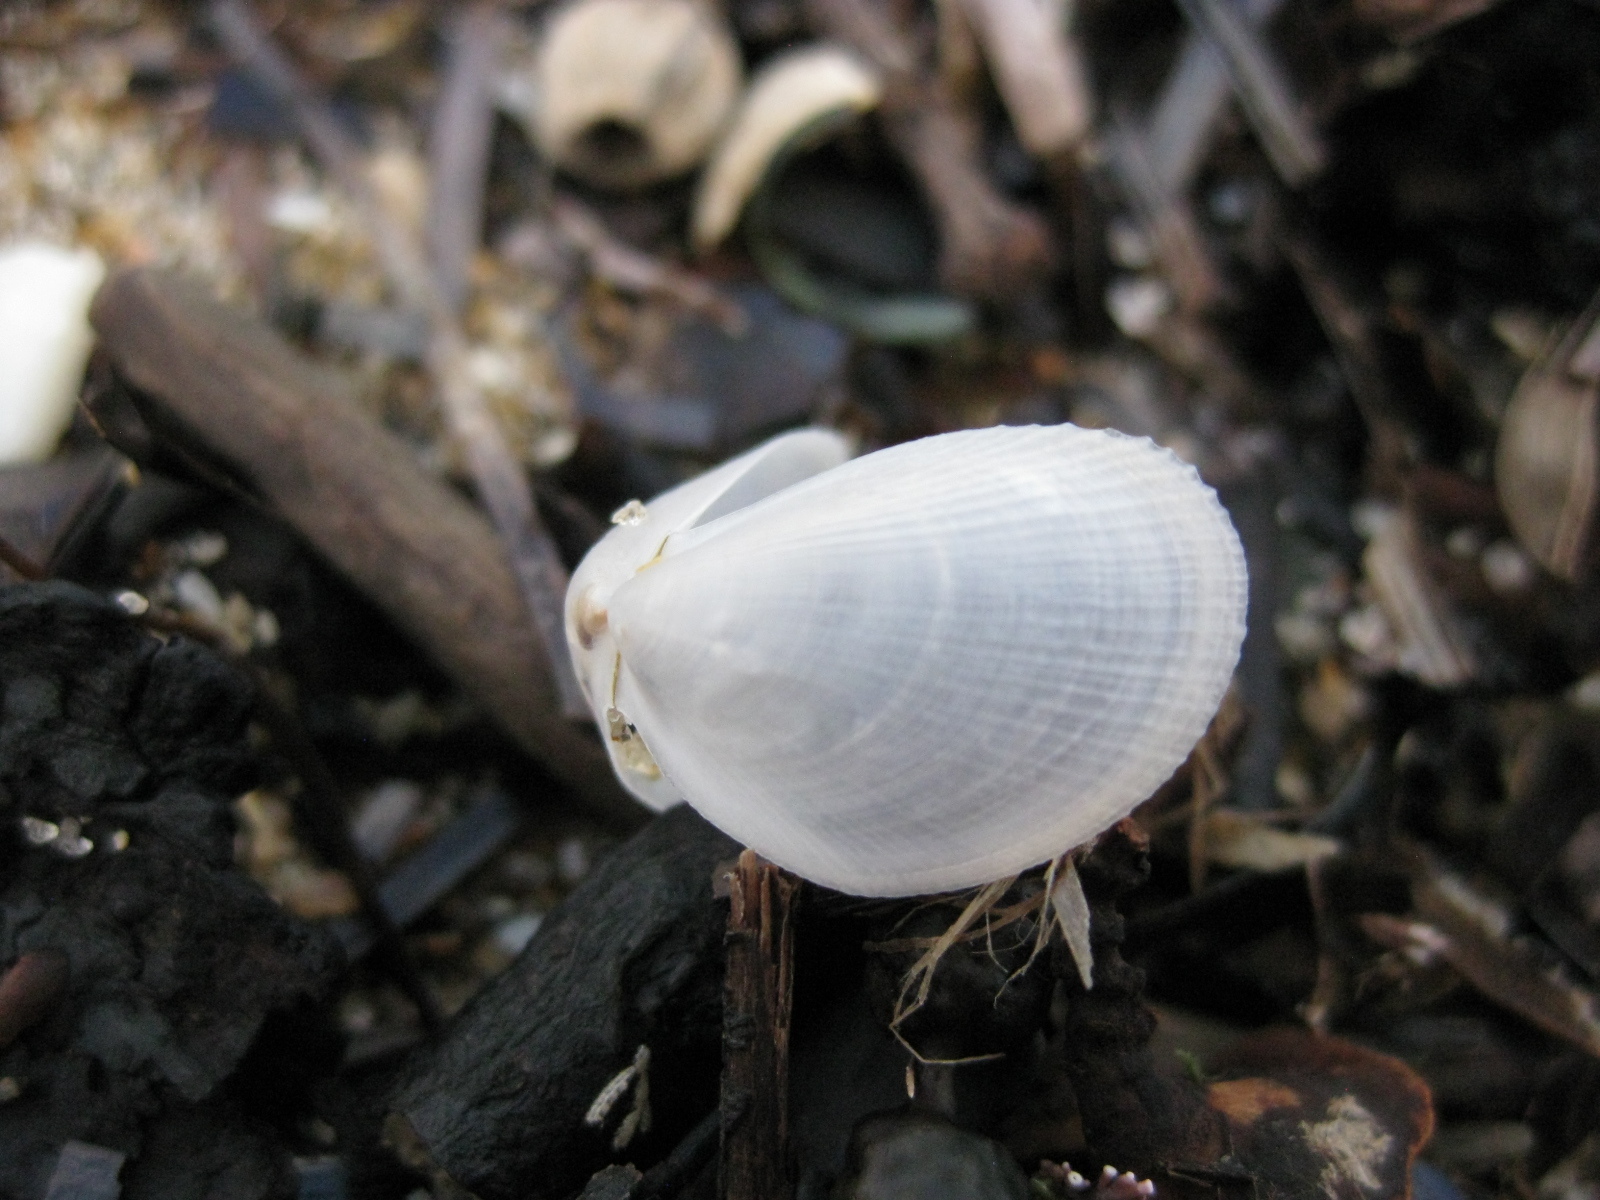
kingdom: Animalia
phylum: Mollusca
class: Bivalvia
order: Limida
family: Limidae
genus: Limaria
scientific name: Limaria orientalis
